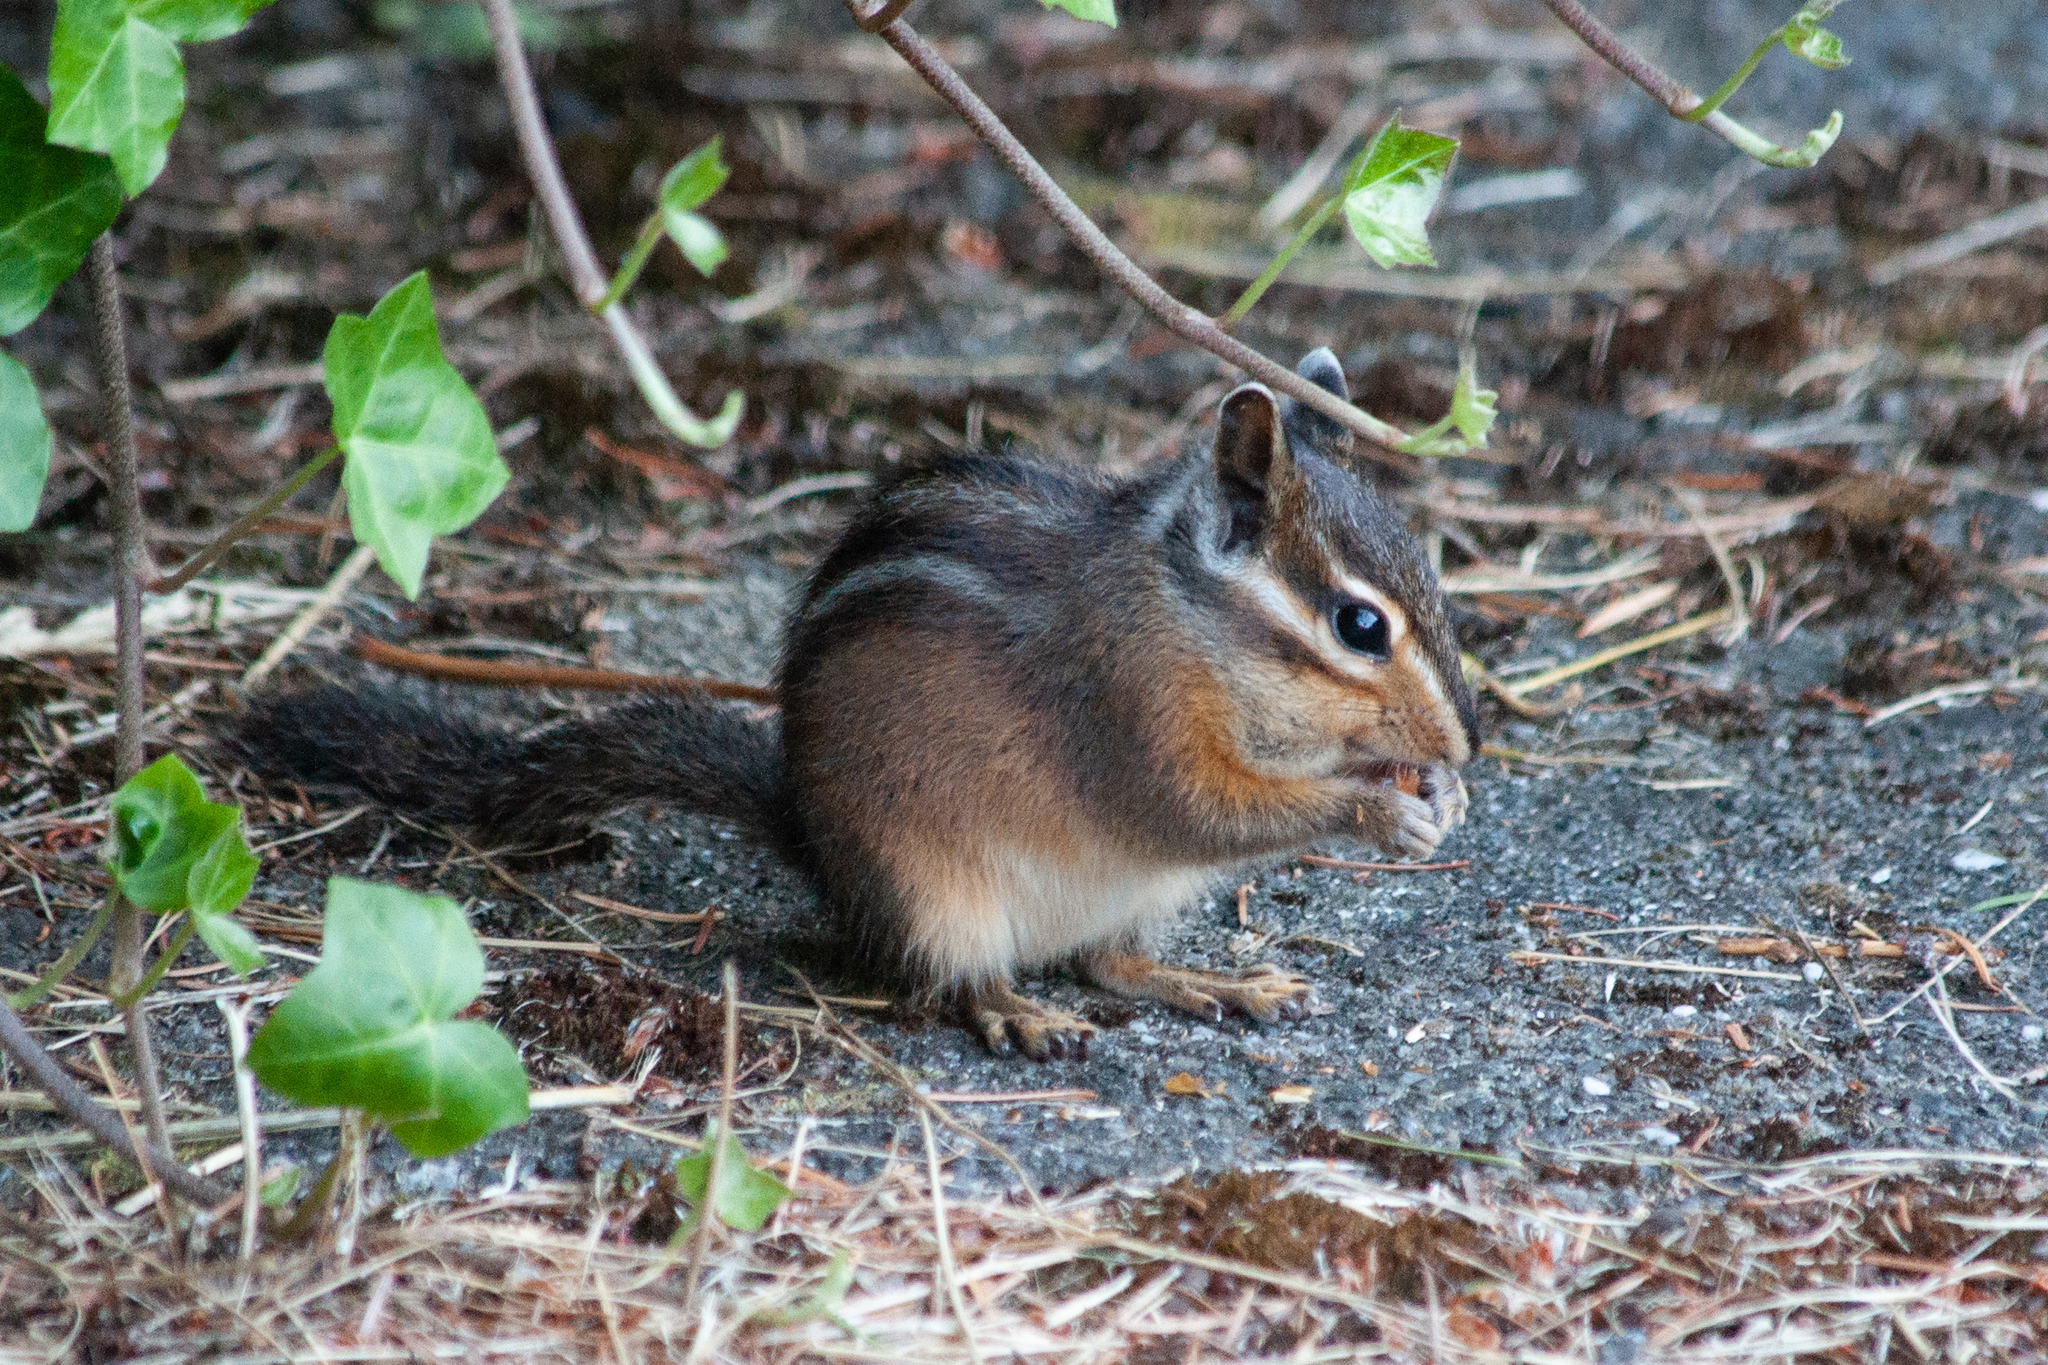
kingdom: Animalia
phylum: Chordata
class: Mammalia
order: Rodentia
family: Sciuridae
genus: Tamias
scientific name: Tamias townsendii
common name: Townsend's chipmunk
